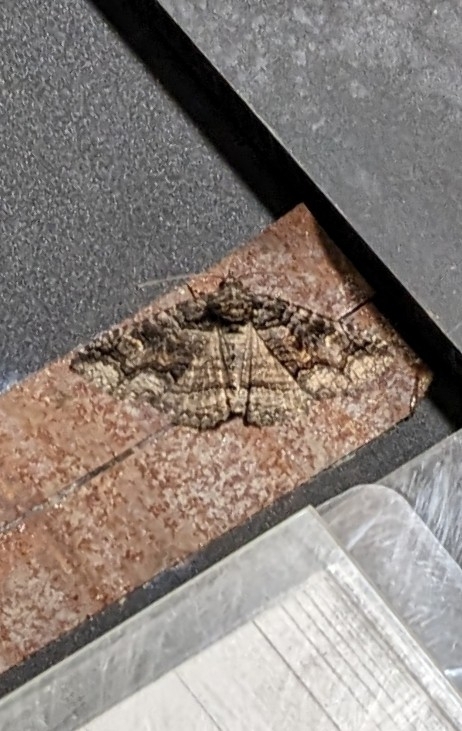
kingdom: Animalia
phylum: Arthropoda
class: Insecta
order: Lepidoptera
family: Erebidae
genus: Zale
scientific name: Zale edusina
